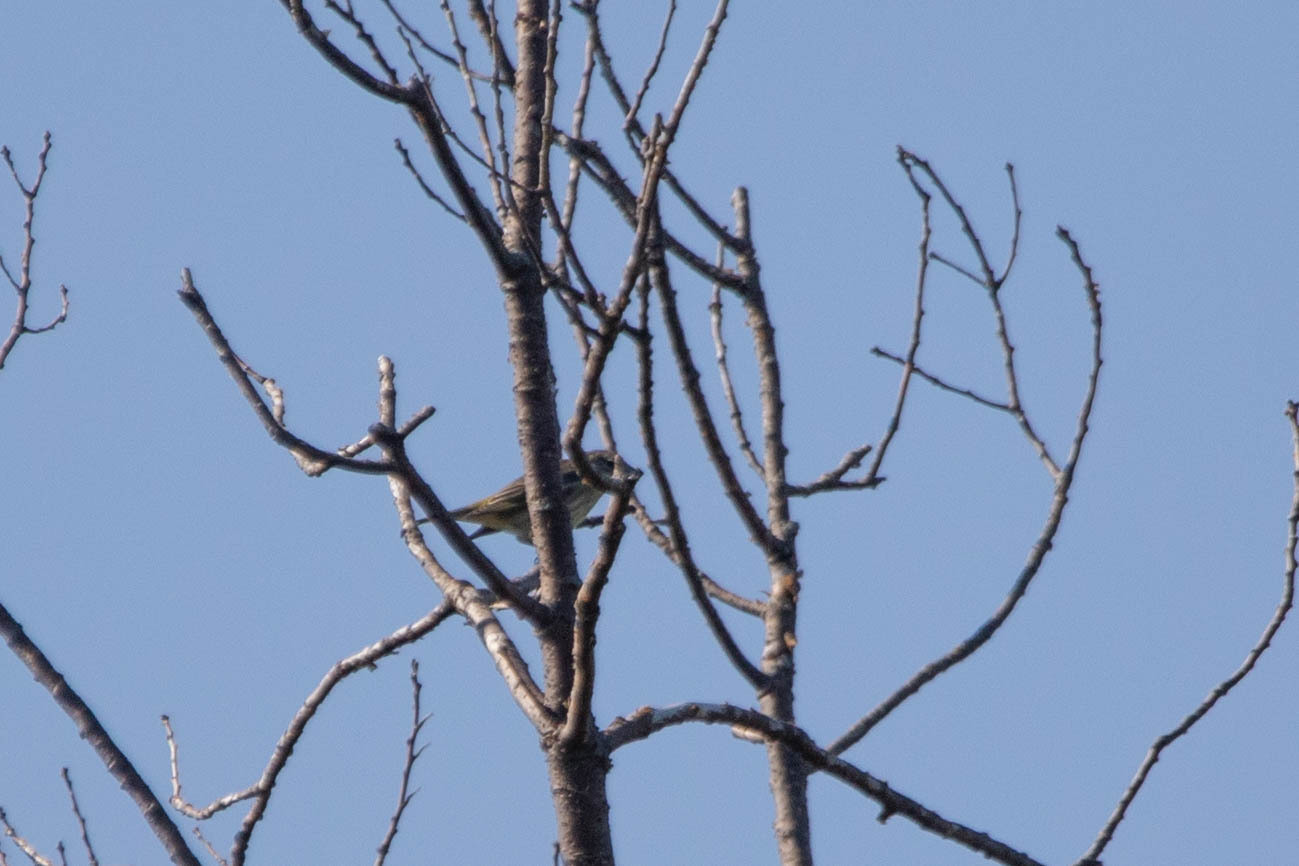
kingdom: Animalia
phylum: Chordata
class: Aves
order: Passeriformes
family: Parulidae
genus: Setophaga
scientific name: Setophaga coronata
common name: Myrtle warbler
